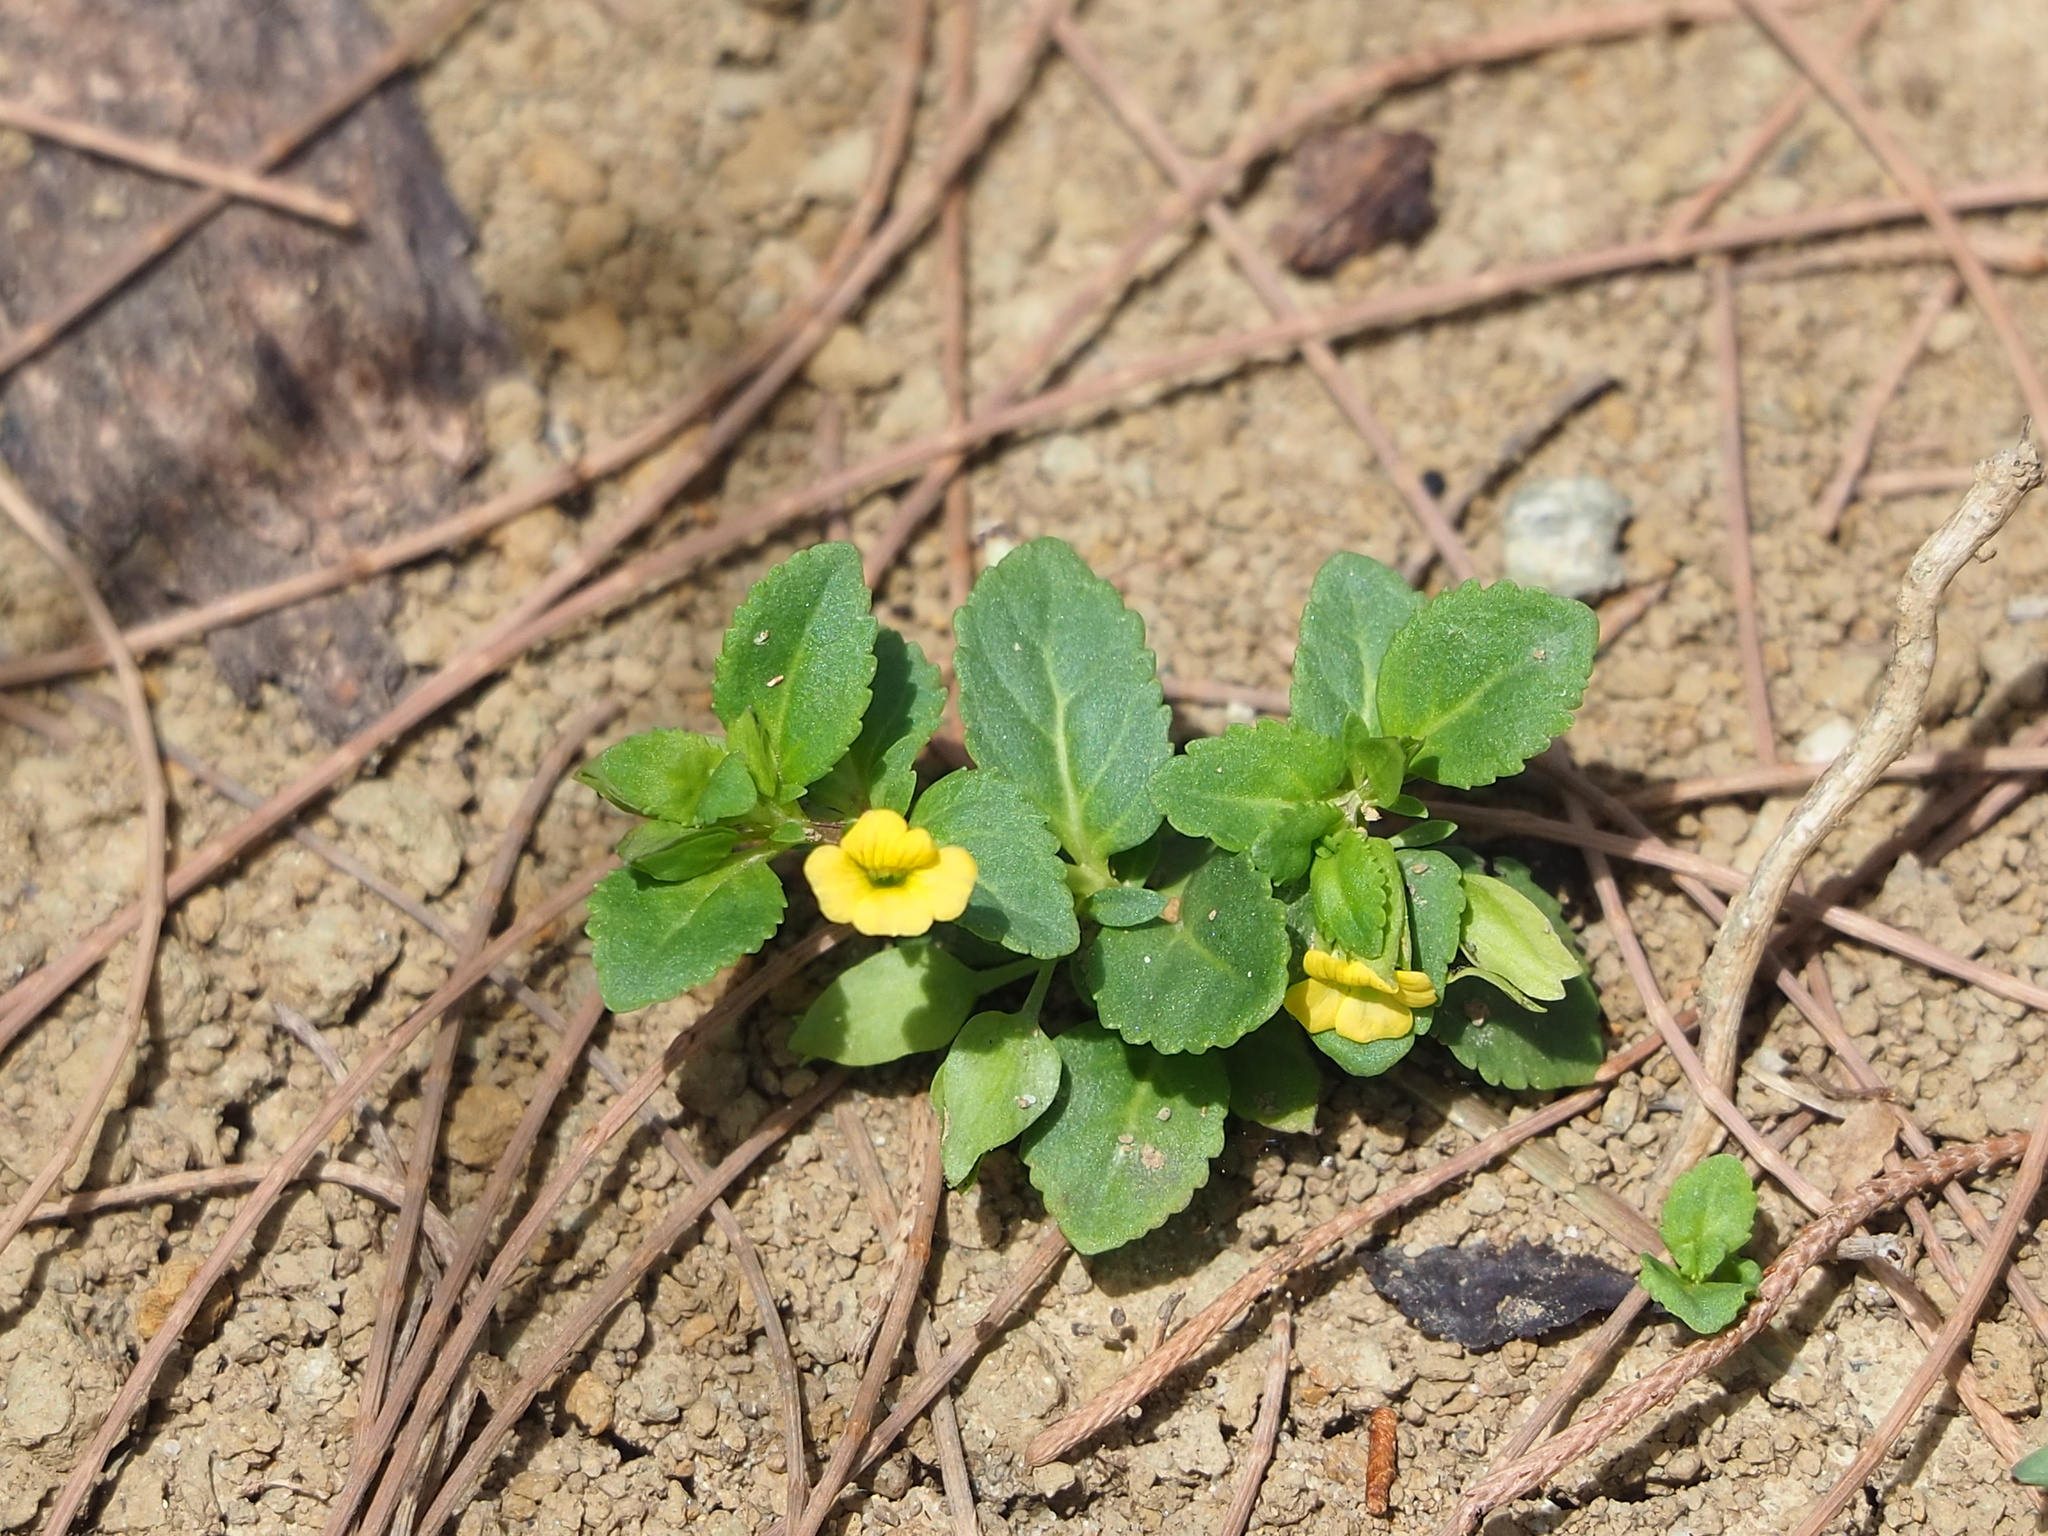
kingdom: Plantae
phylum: Tracheophyta
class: Magnoliopsida
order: Lamiales
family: Plantaginaceae
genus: Mecardonia
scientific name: Mecardonia procumbens
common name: Baby jump-up
